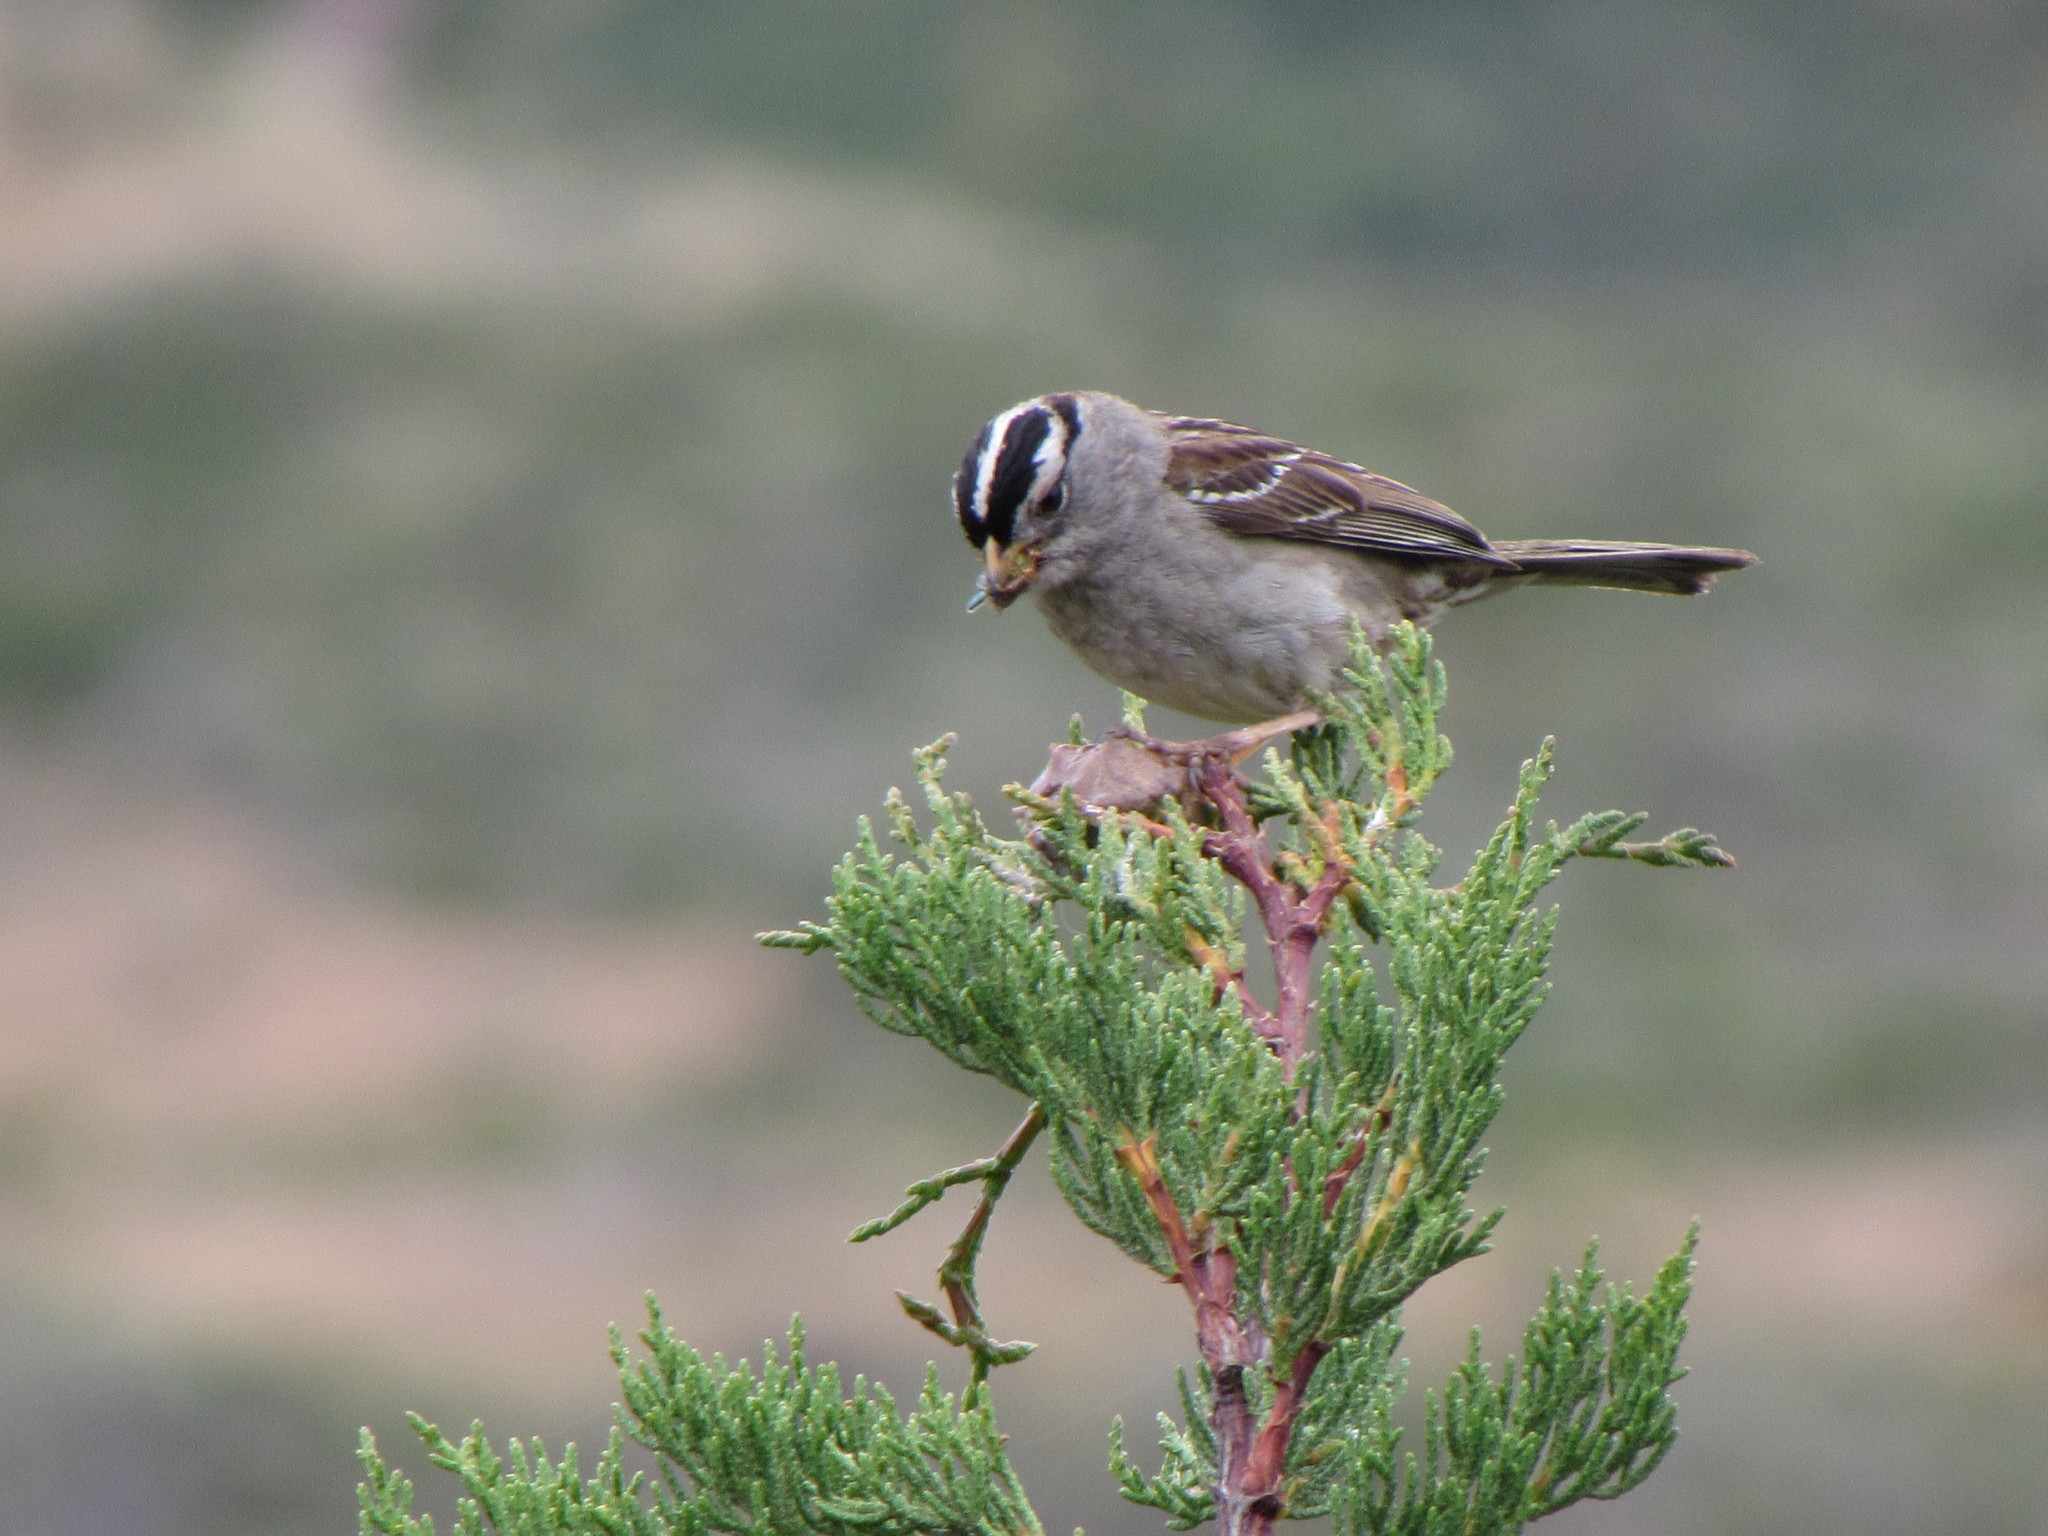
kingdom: Animalia
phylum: Chordata
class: Aves
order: Passeriformes
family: Passerellidae
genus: Zonotrichia
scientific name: Zonotrichia leucophrys
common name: White-crowned sparrow
